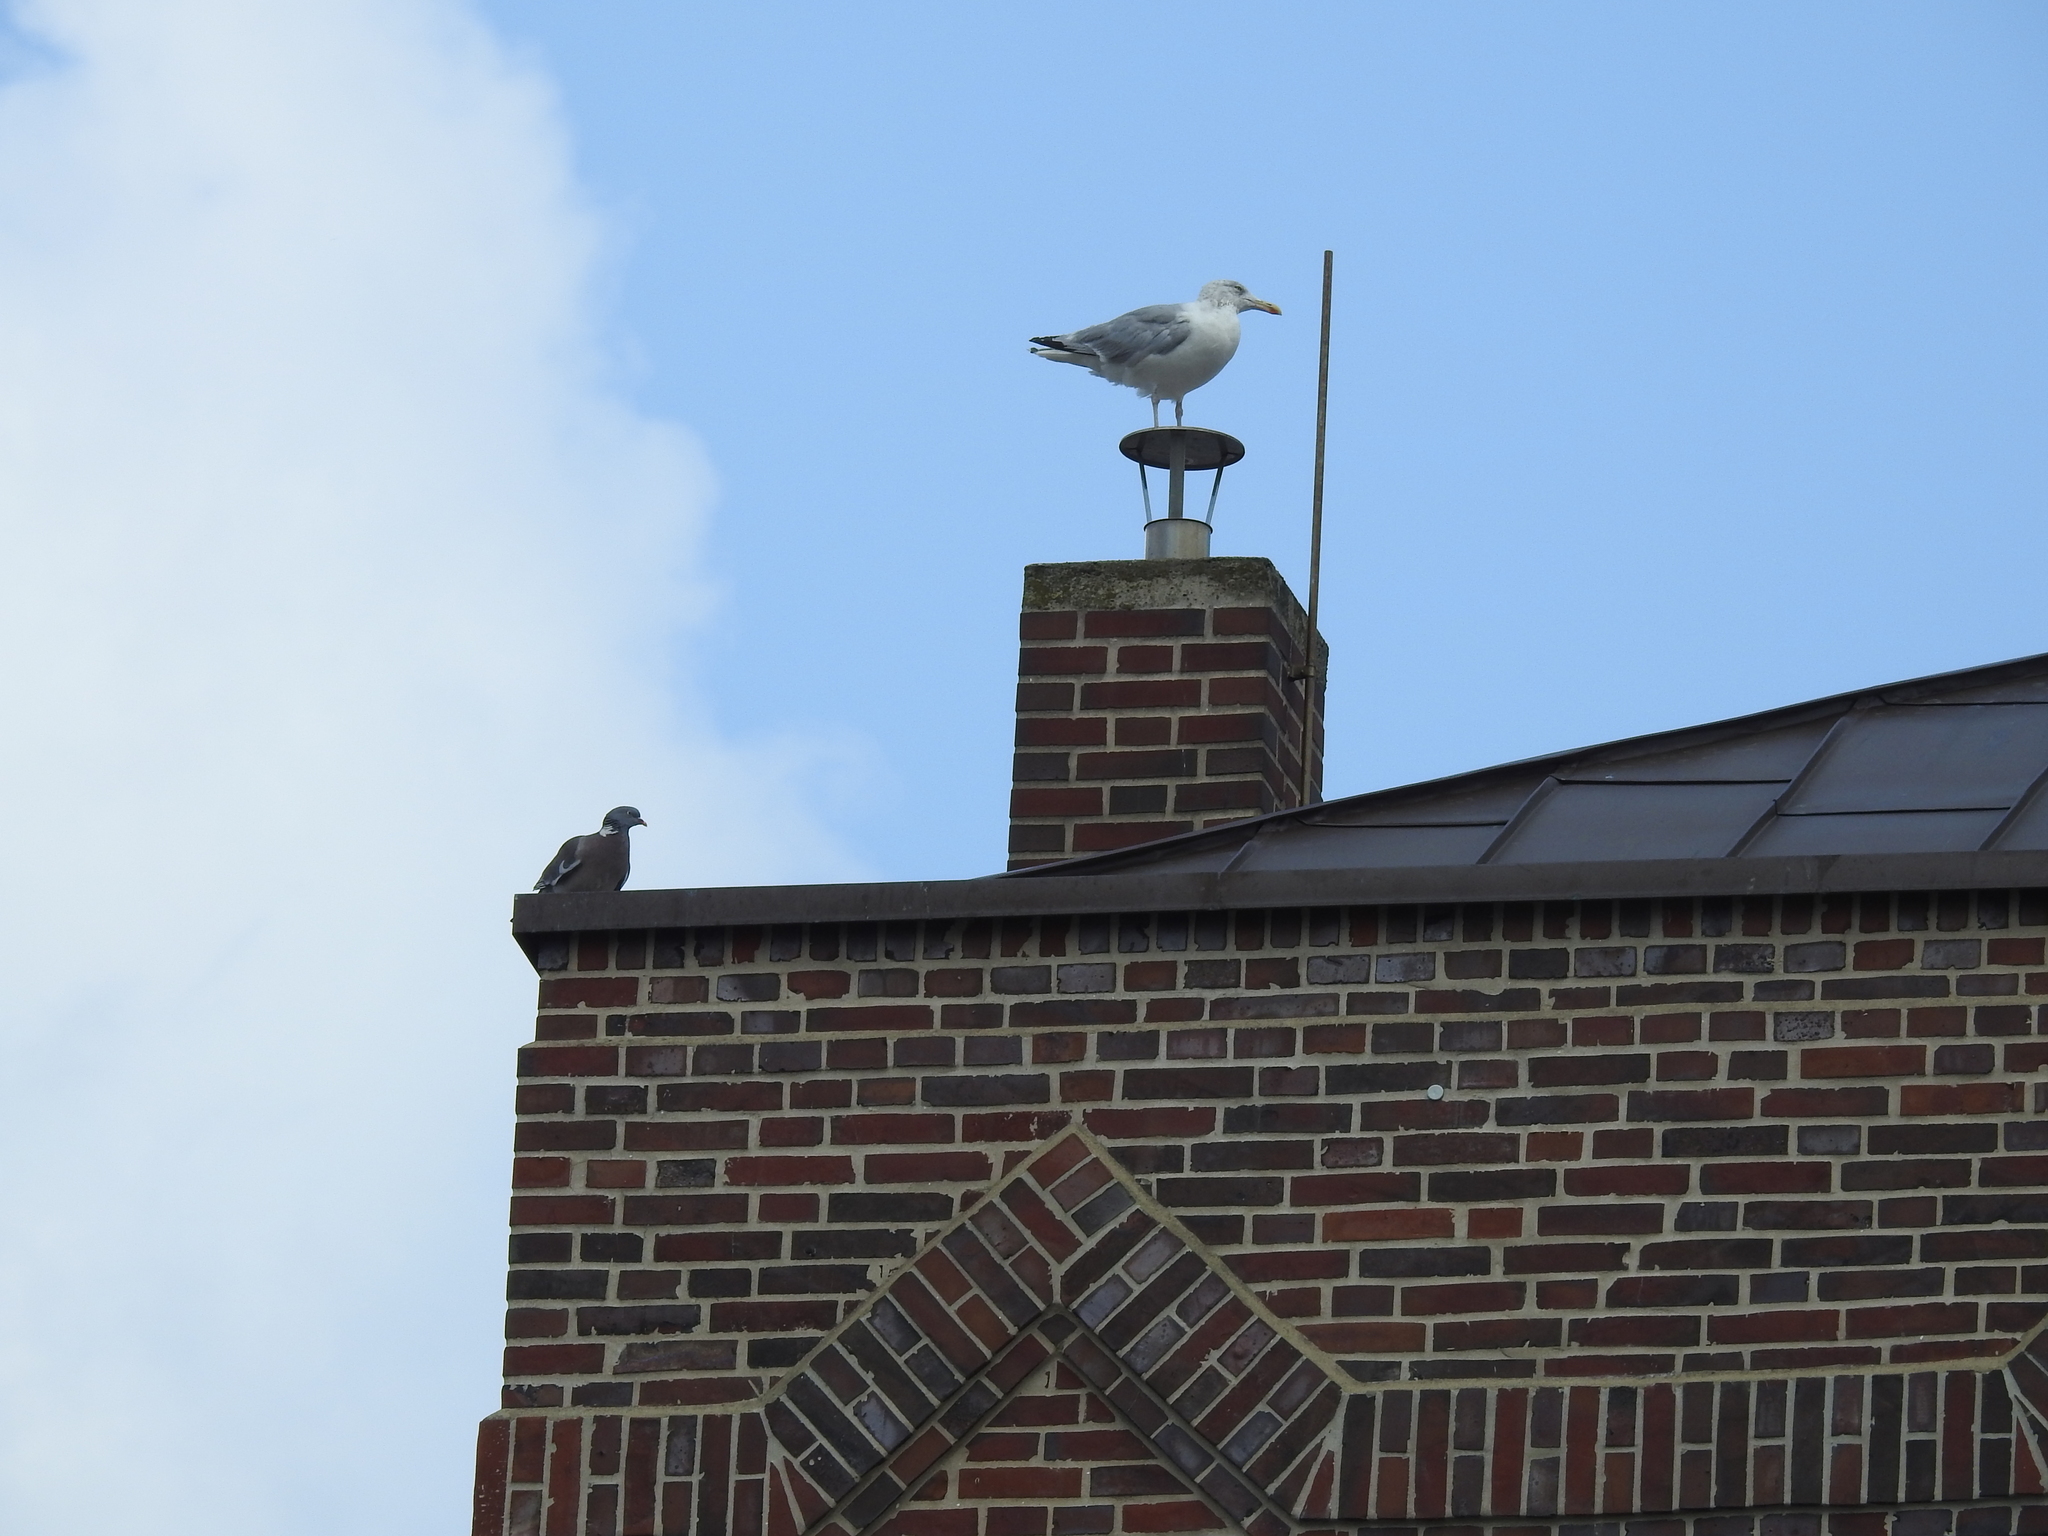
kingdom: Animalia
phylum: Chordata
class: Aves
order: Charadriiformes
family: Laridae
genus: Larus
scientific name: Larus argentatus
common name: Herring gull
